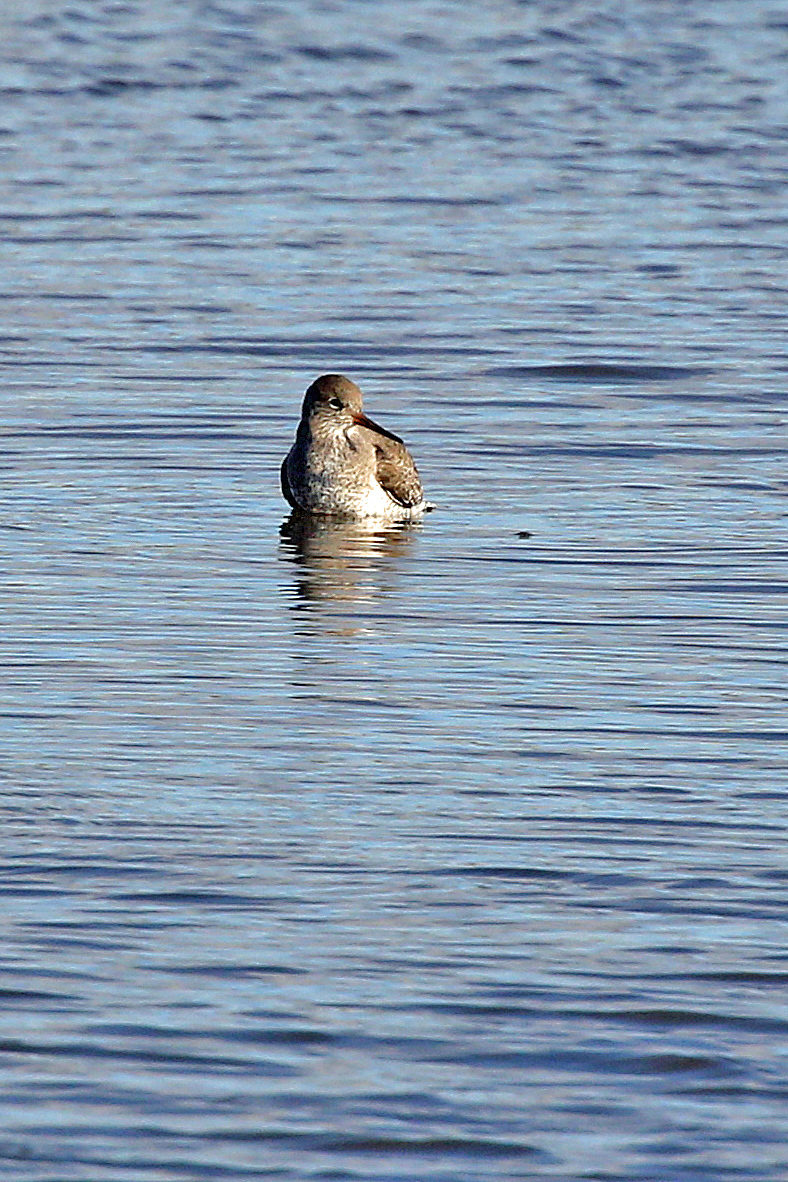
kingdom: Animalia
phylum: Chordata
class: Aves
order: Charadriiformes
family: Scolopacidae
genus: Tringa
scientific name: Tringa totanus
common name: Common redshank
